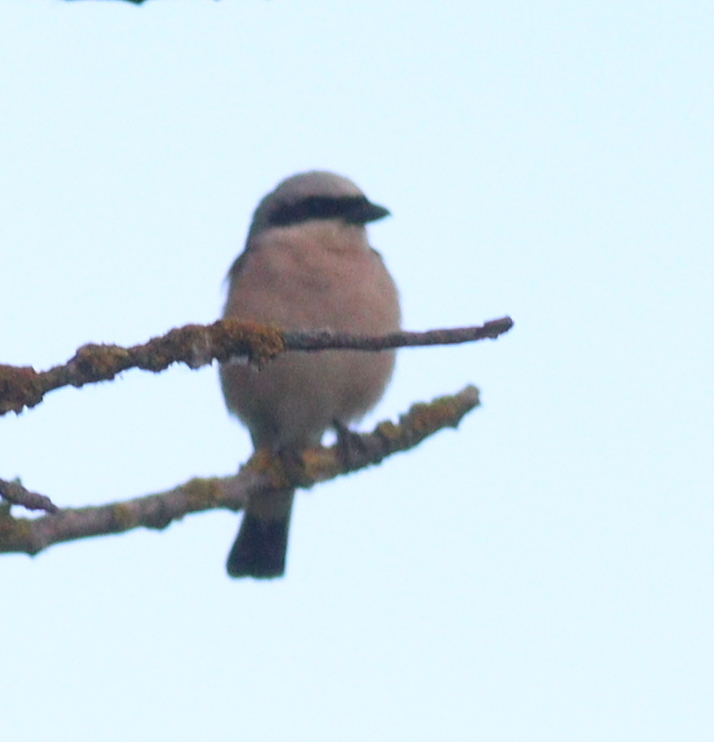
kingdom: Animalia
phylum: Chordata
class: Aves
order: Passeriformes
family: Laniidae
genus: Lanius
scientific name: Lanius collurio
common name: Red-backed shrike
